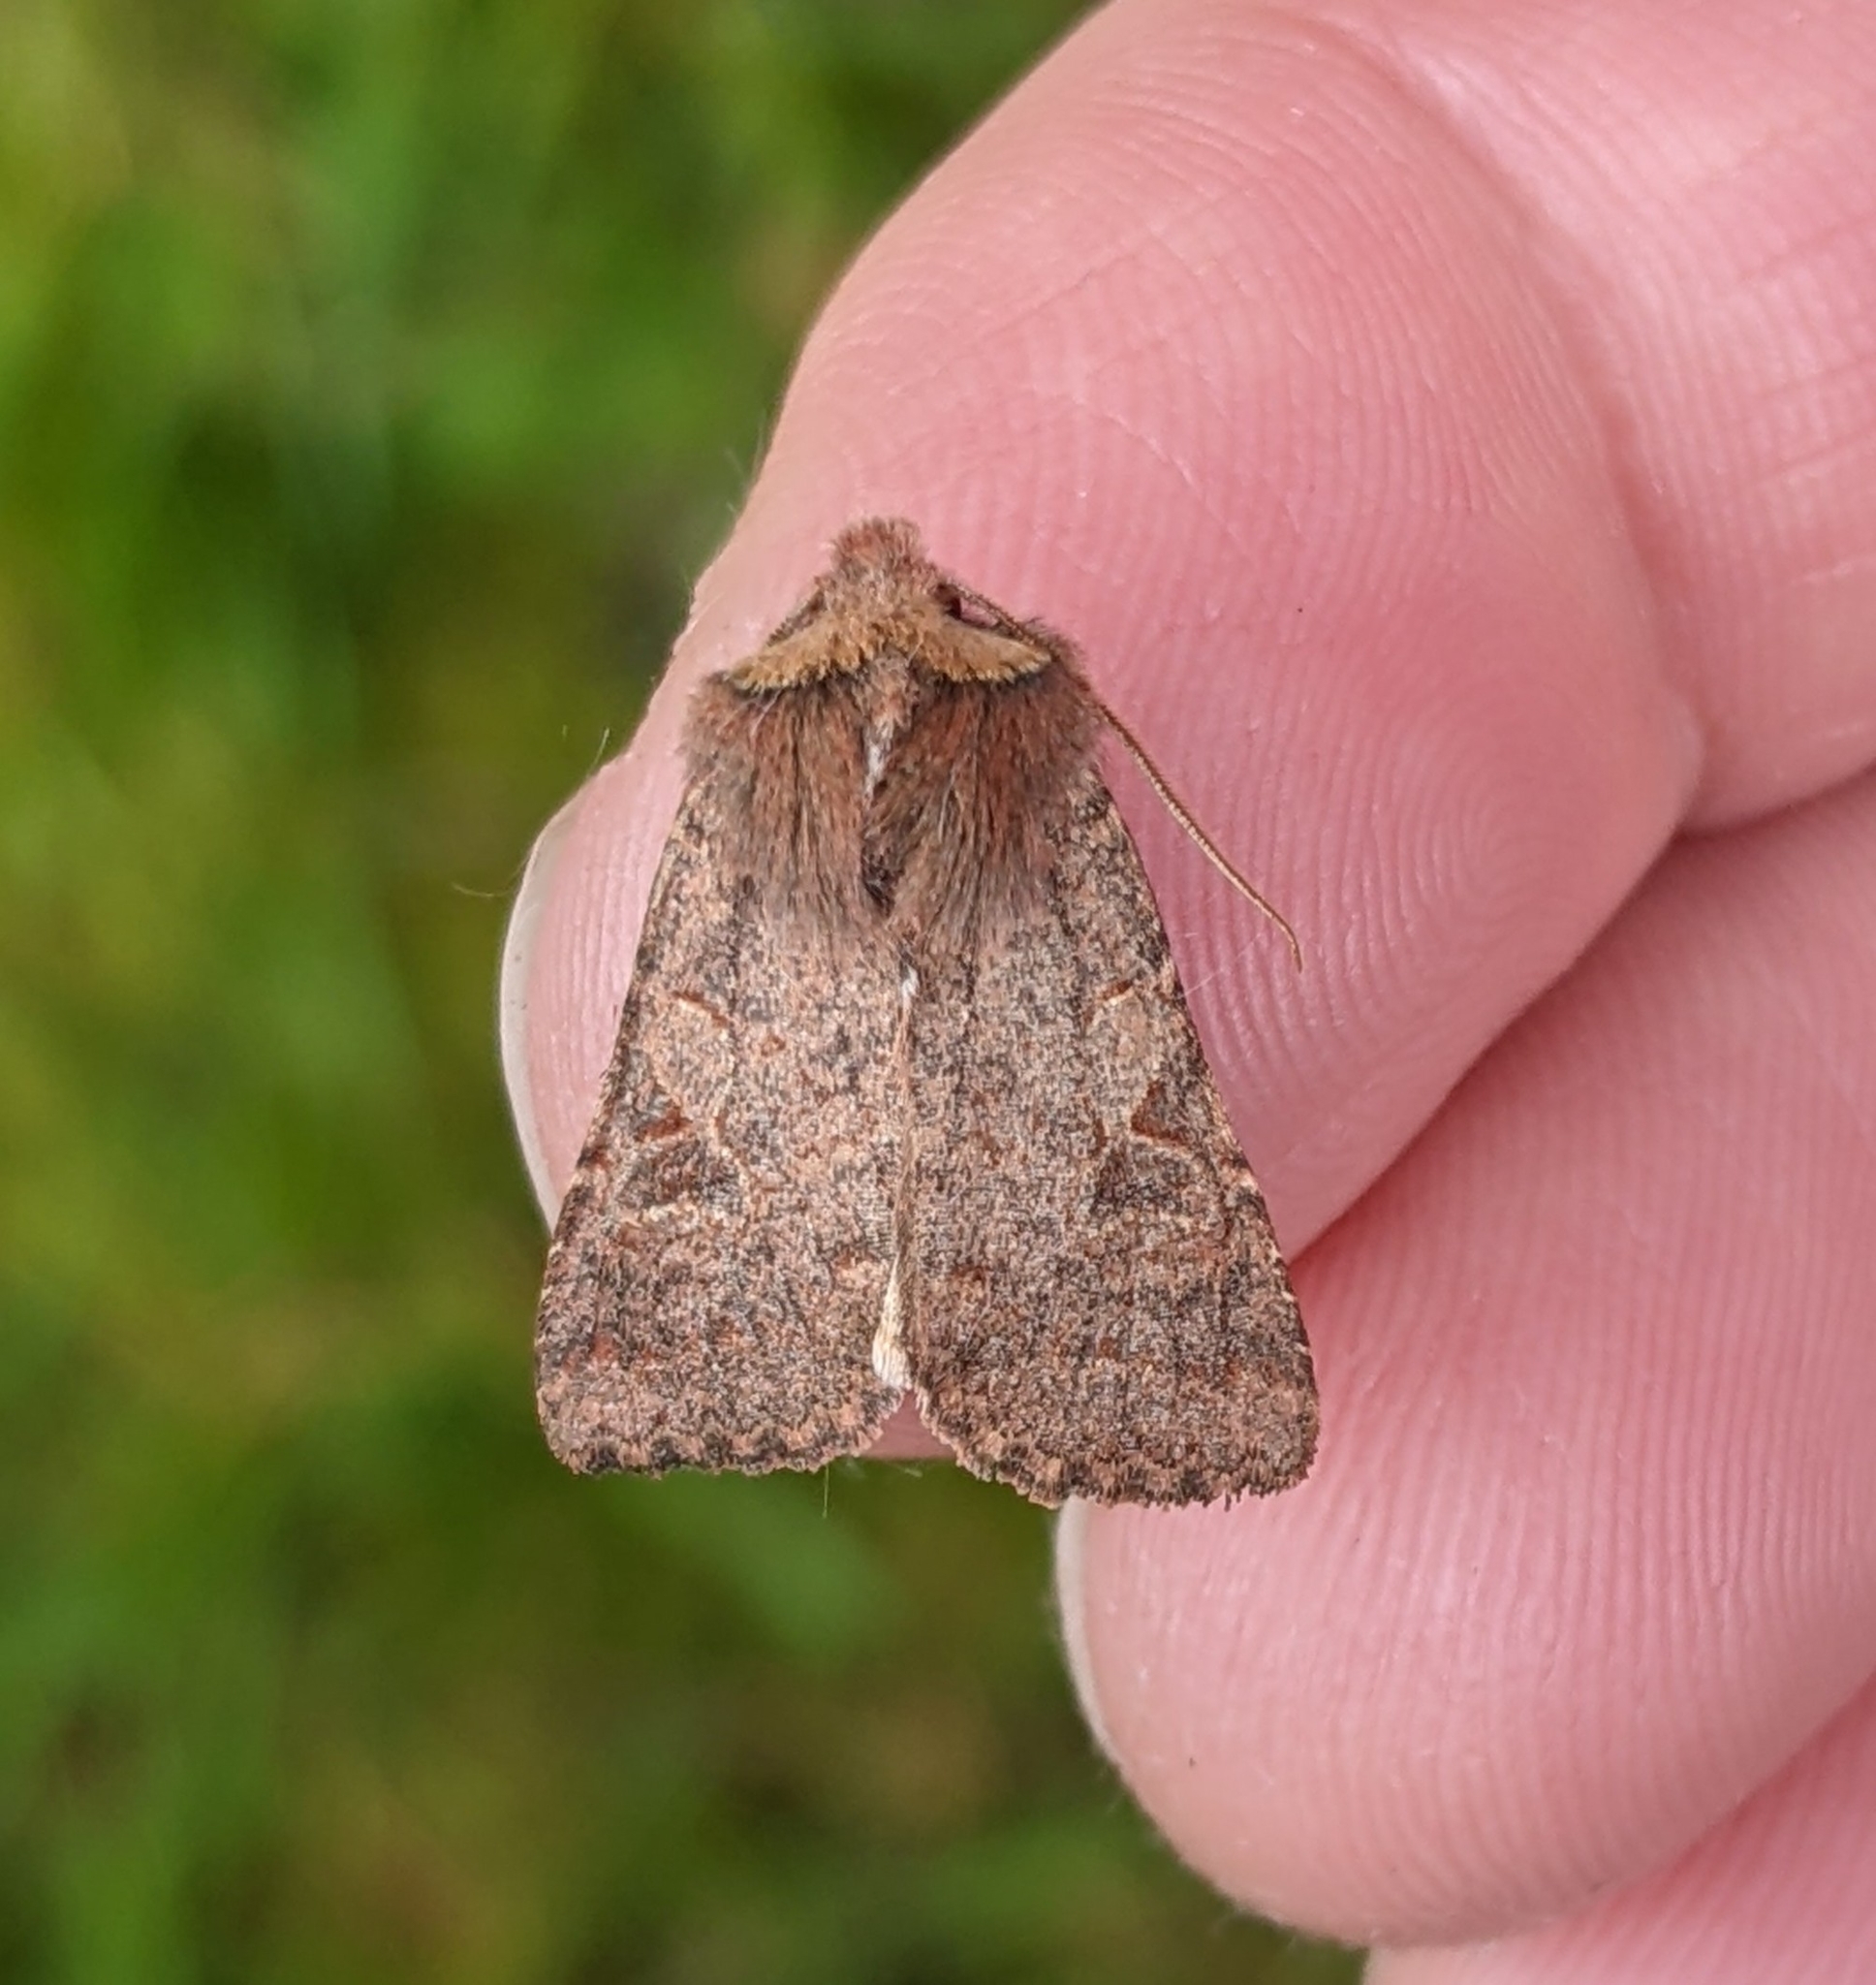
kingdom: Animalia
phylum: Arthropoda
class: Insecta
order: Lepidoptera
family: Noctuidae
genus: Orthosia
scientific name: Orthosia praeses
